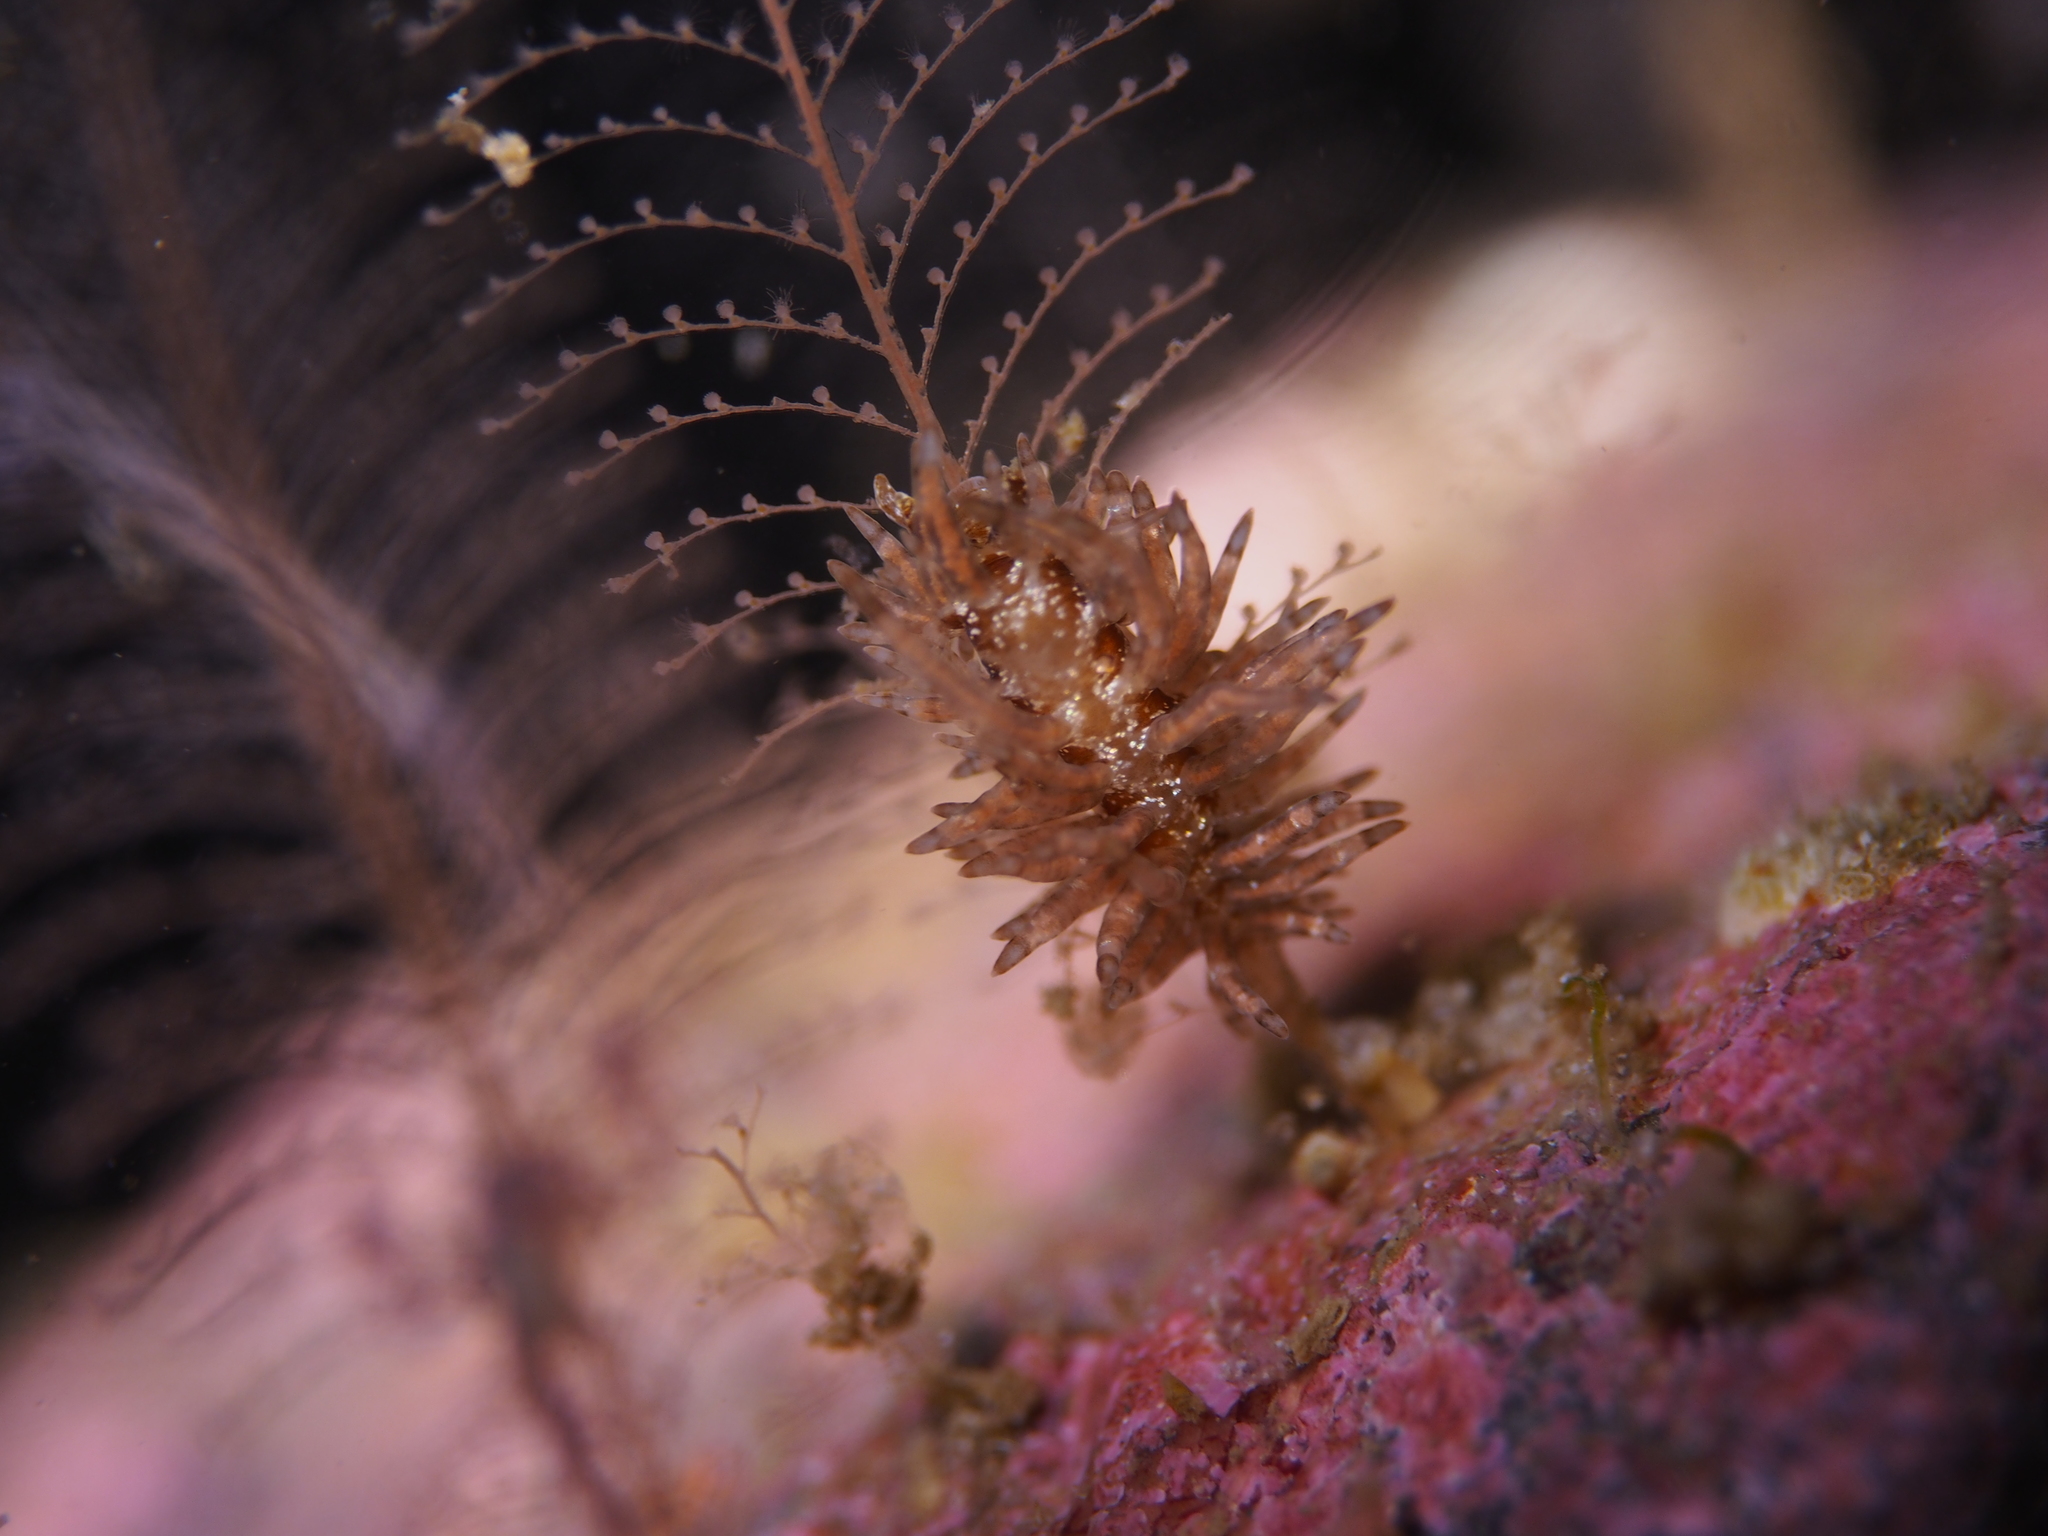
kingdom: Animalia
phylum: Mollusca
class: Gastropoda
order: Nudibranchia
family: Eubranchidae
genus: Eubranchus
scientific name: Eubranchus vittatus
